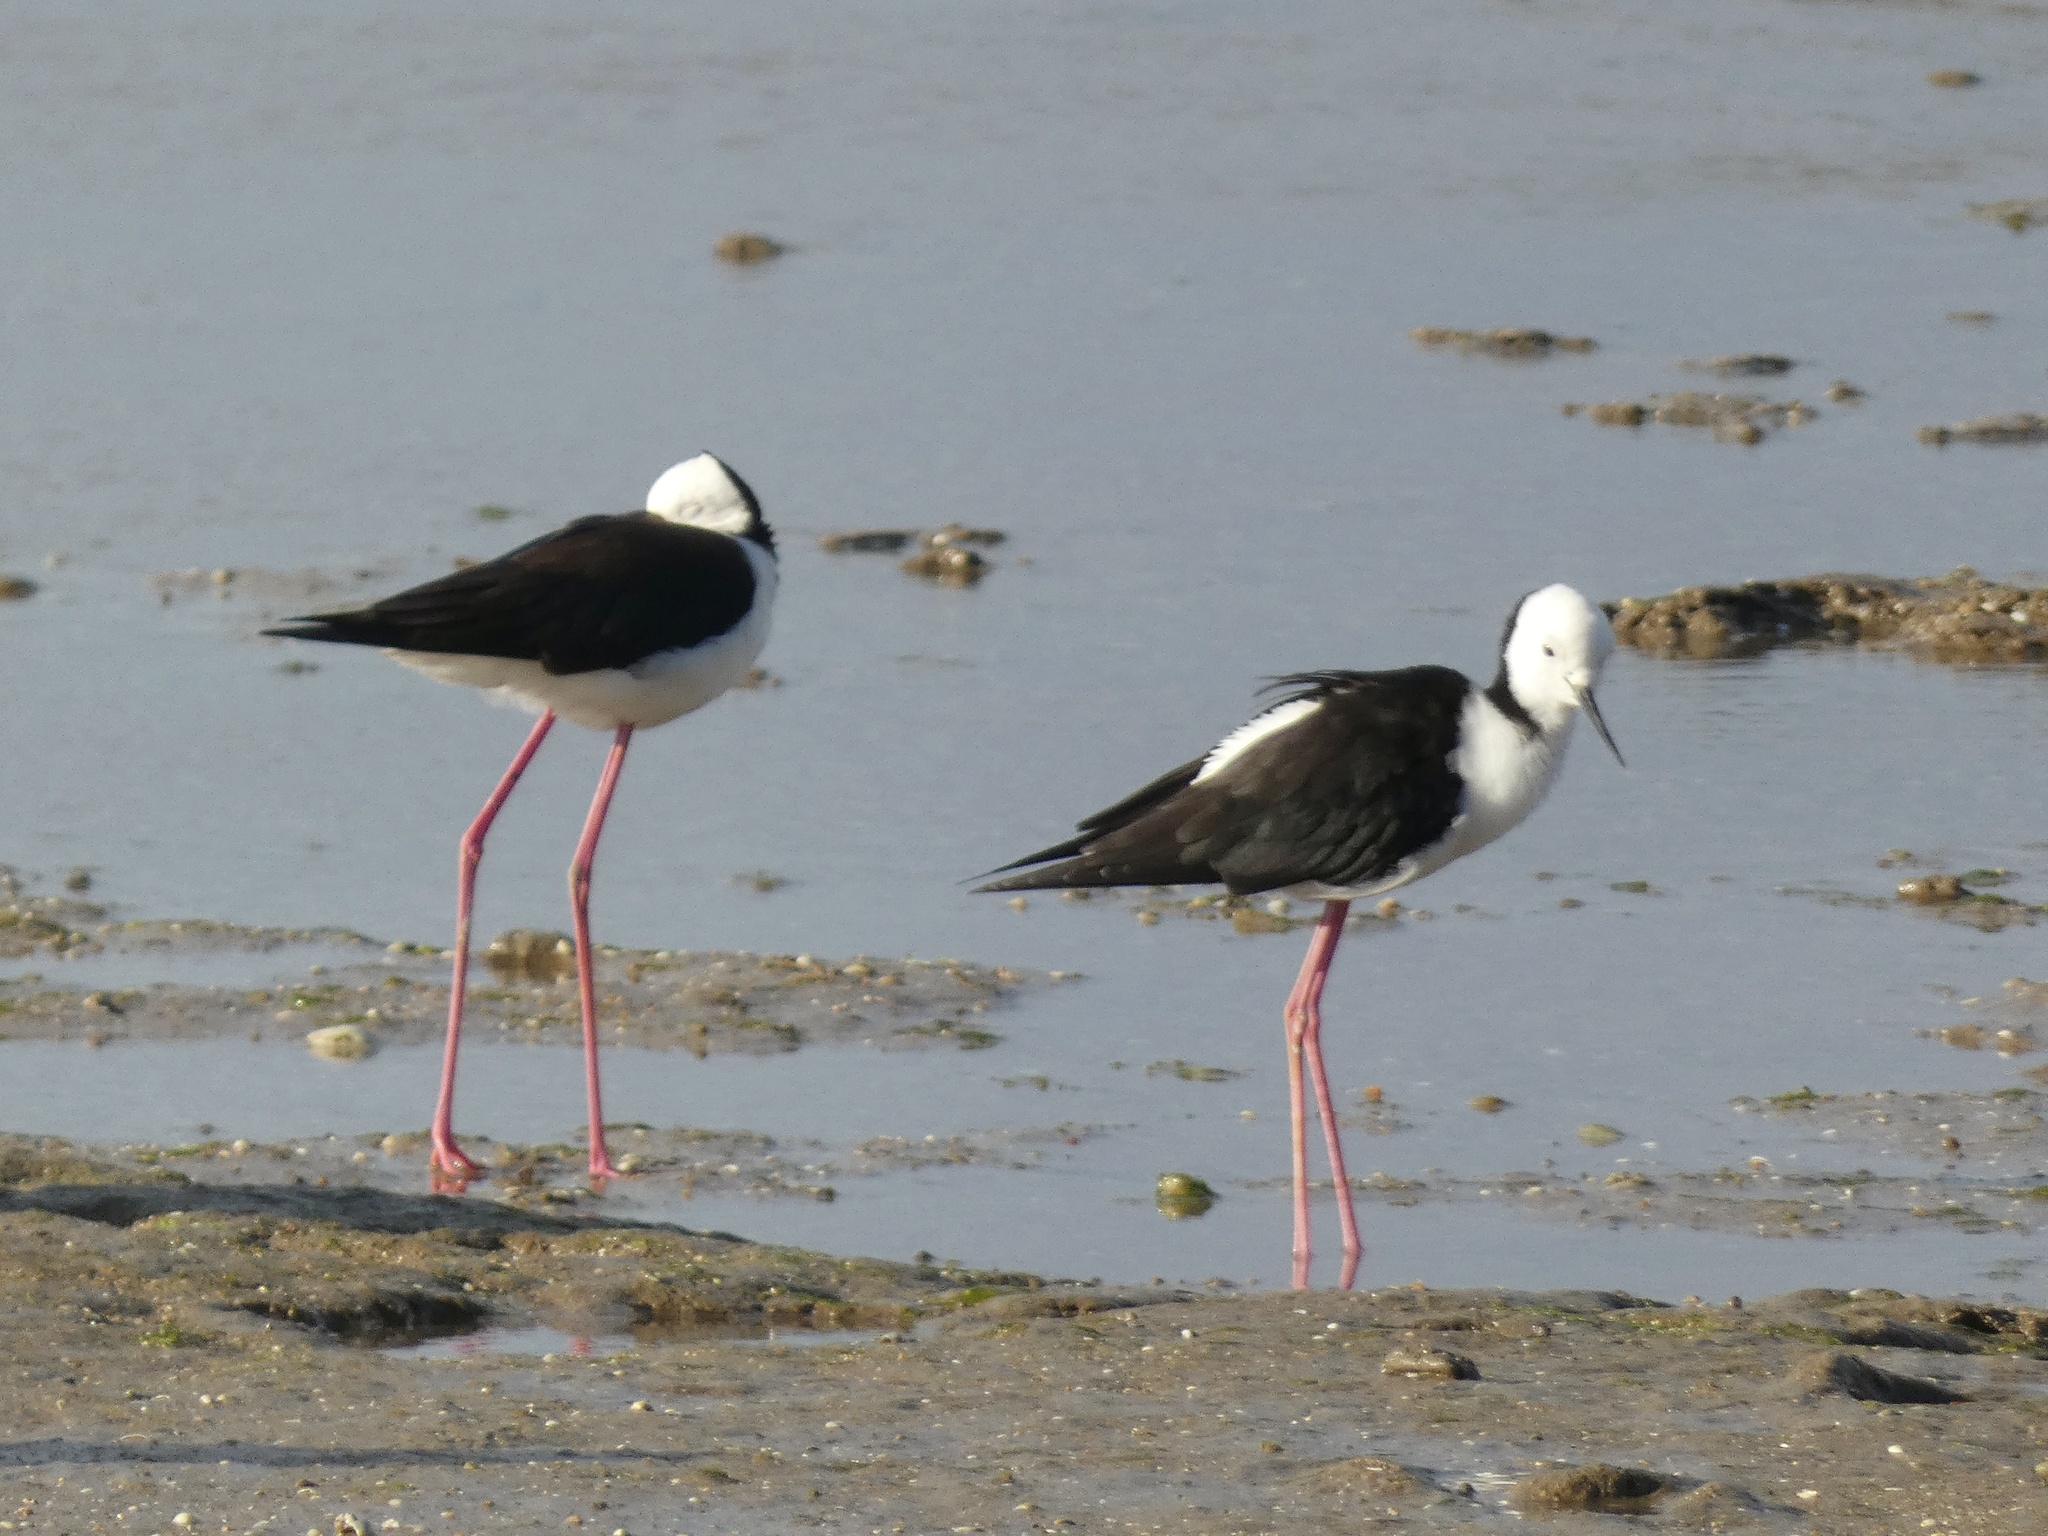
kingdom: Animalia
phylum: Chordata
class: Aves
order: Charadriiformes
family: Recurvirostridae
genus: Himantopus
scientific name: Himantopus leucocephalus
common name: White-headed stilt
